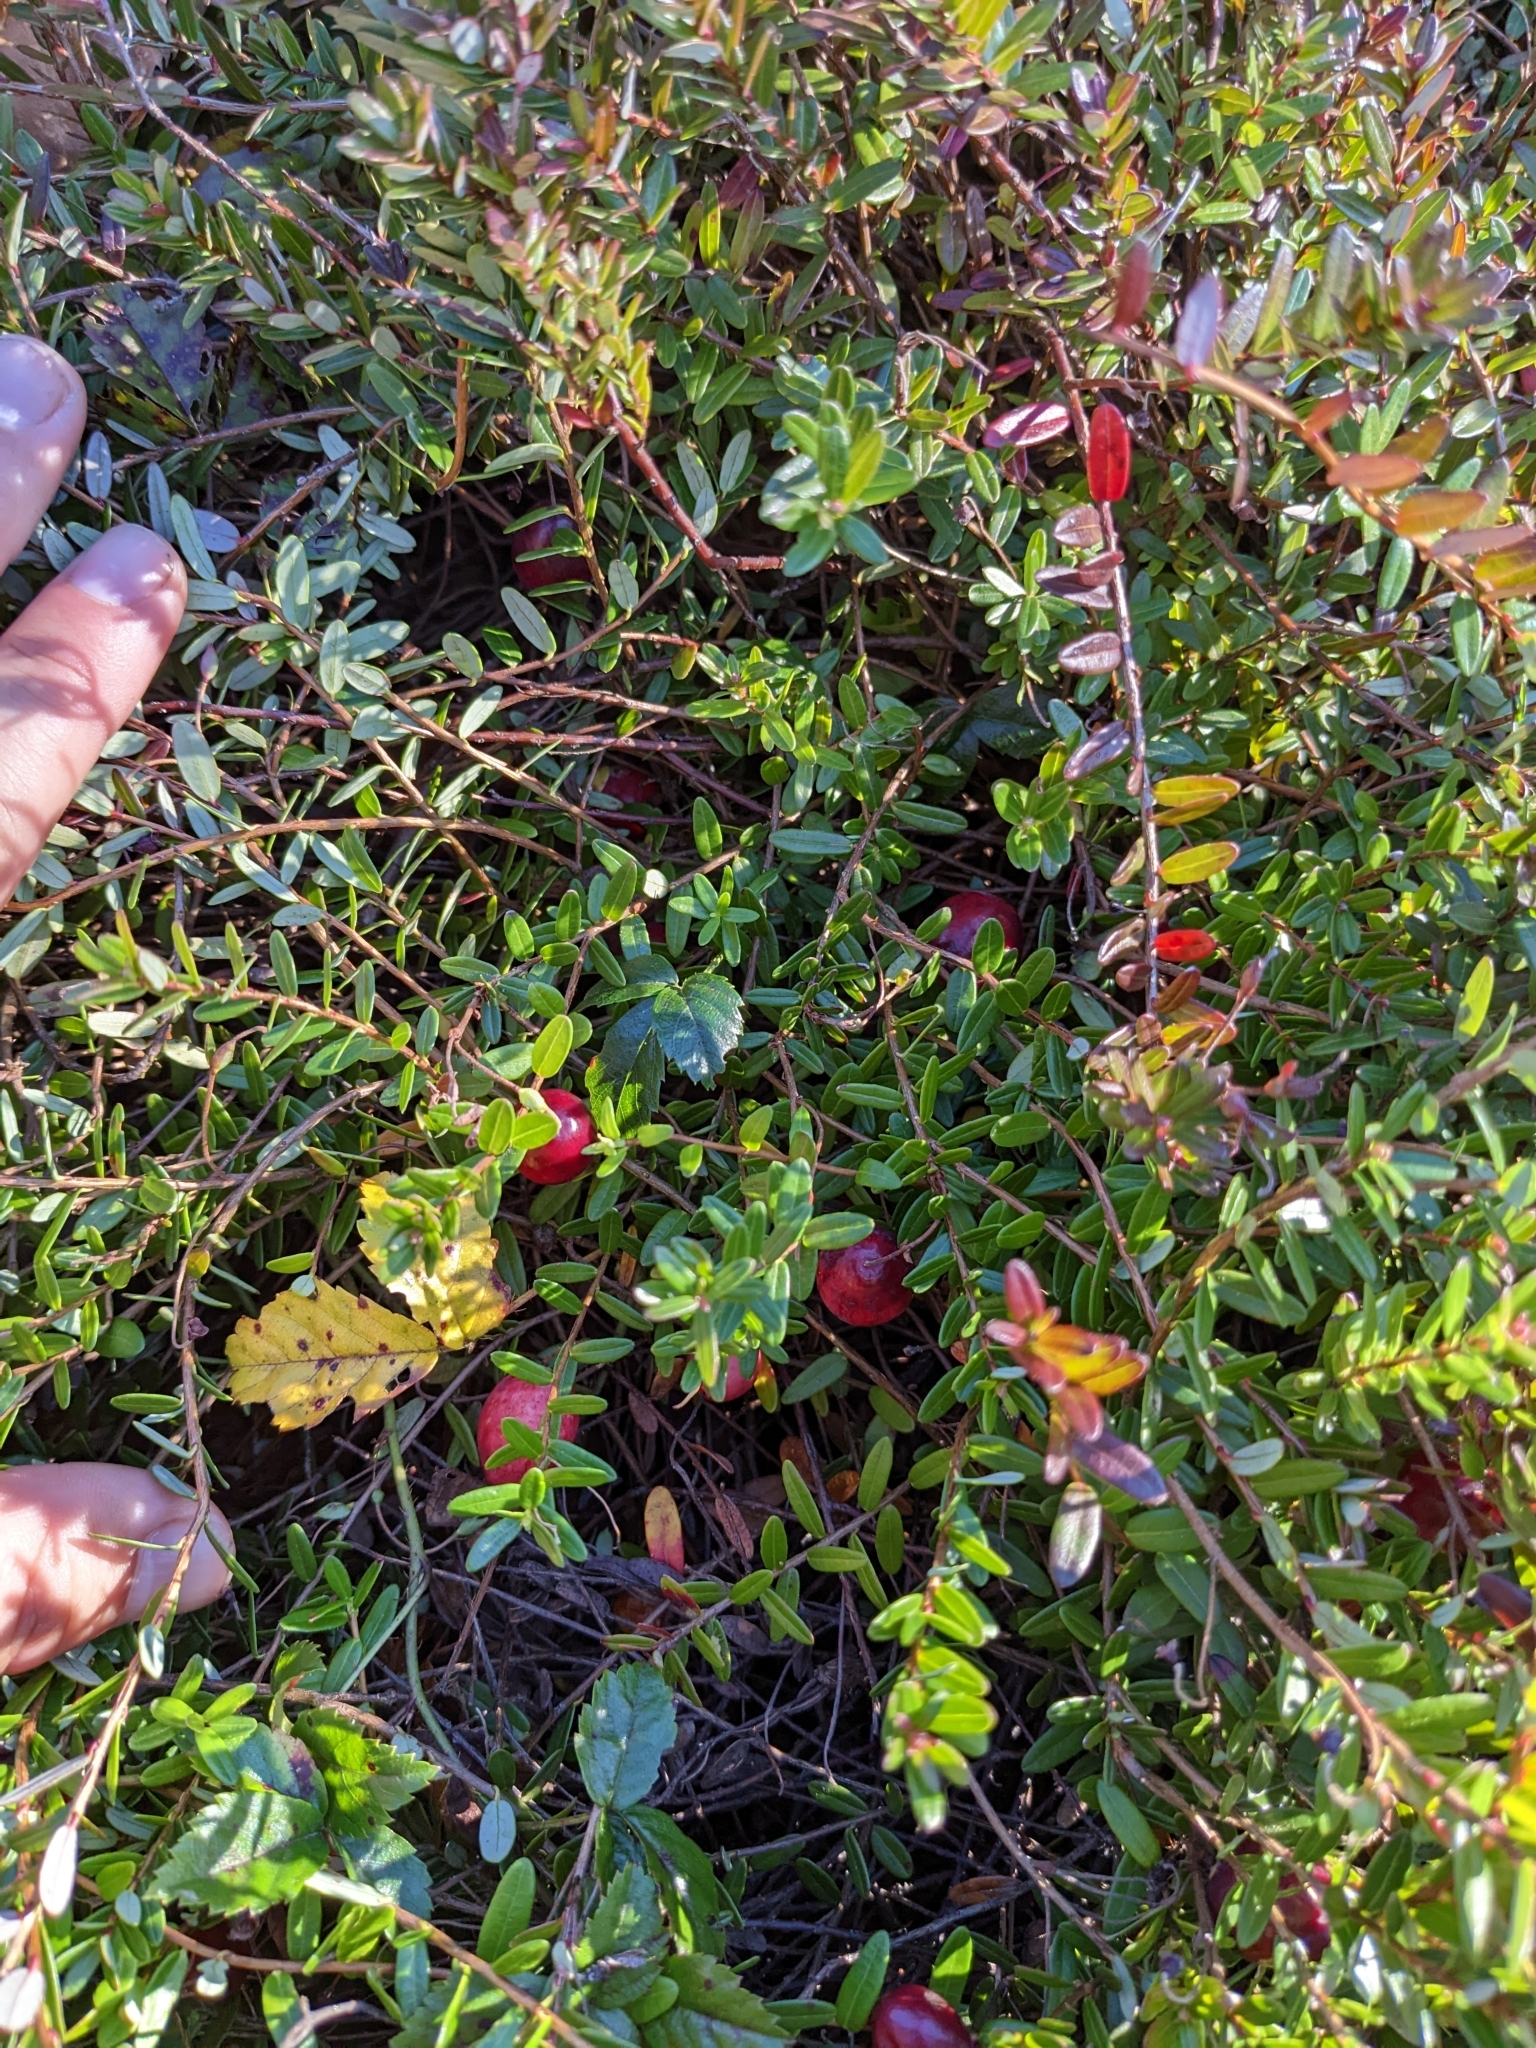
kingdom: Plantae
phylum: Tracheophyta
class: Magnoliopsida
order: Ericales
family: Ericaceae
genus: Vaccinium
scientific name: Vaccinium macrocarpon
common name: American cranberry
